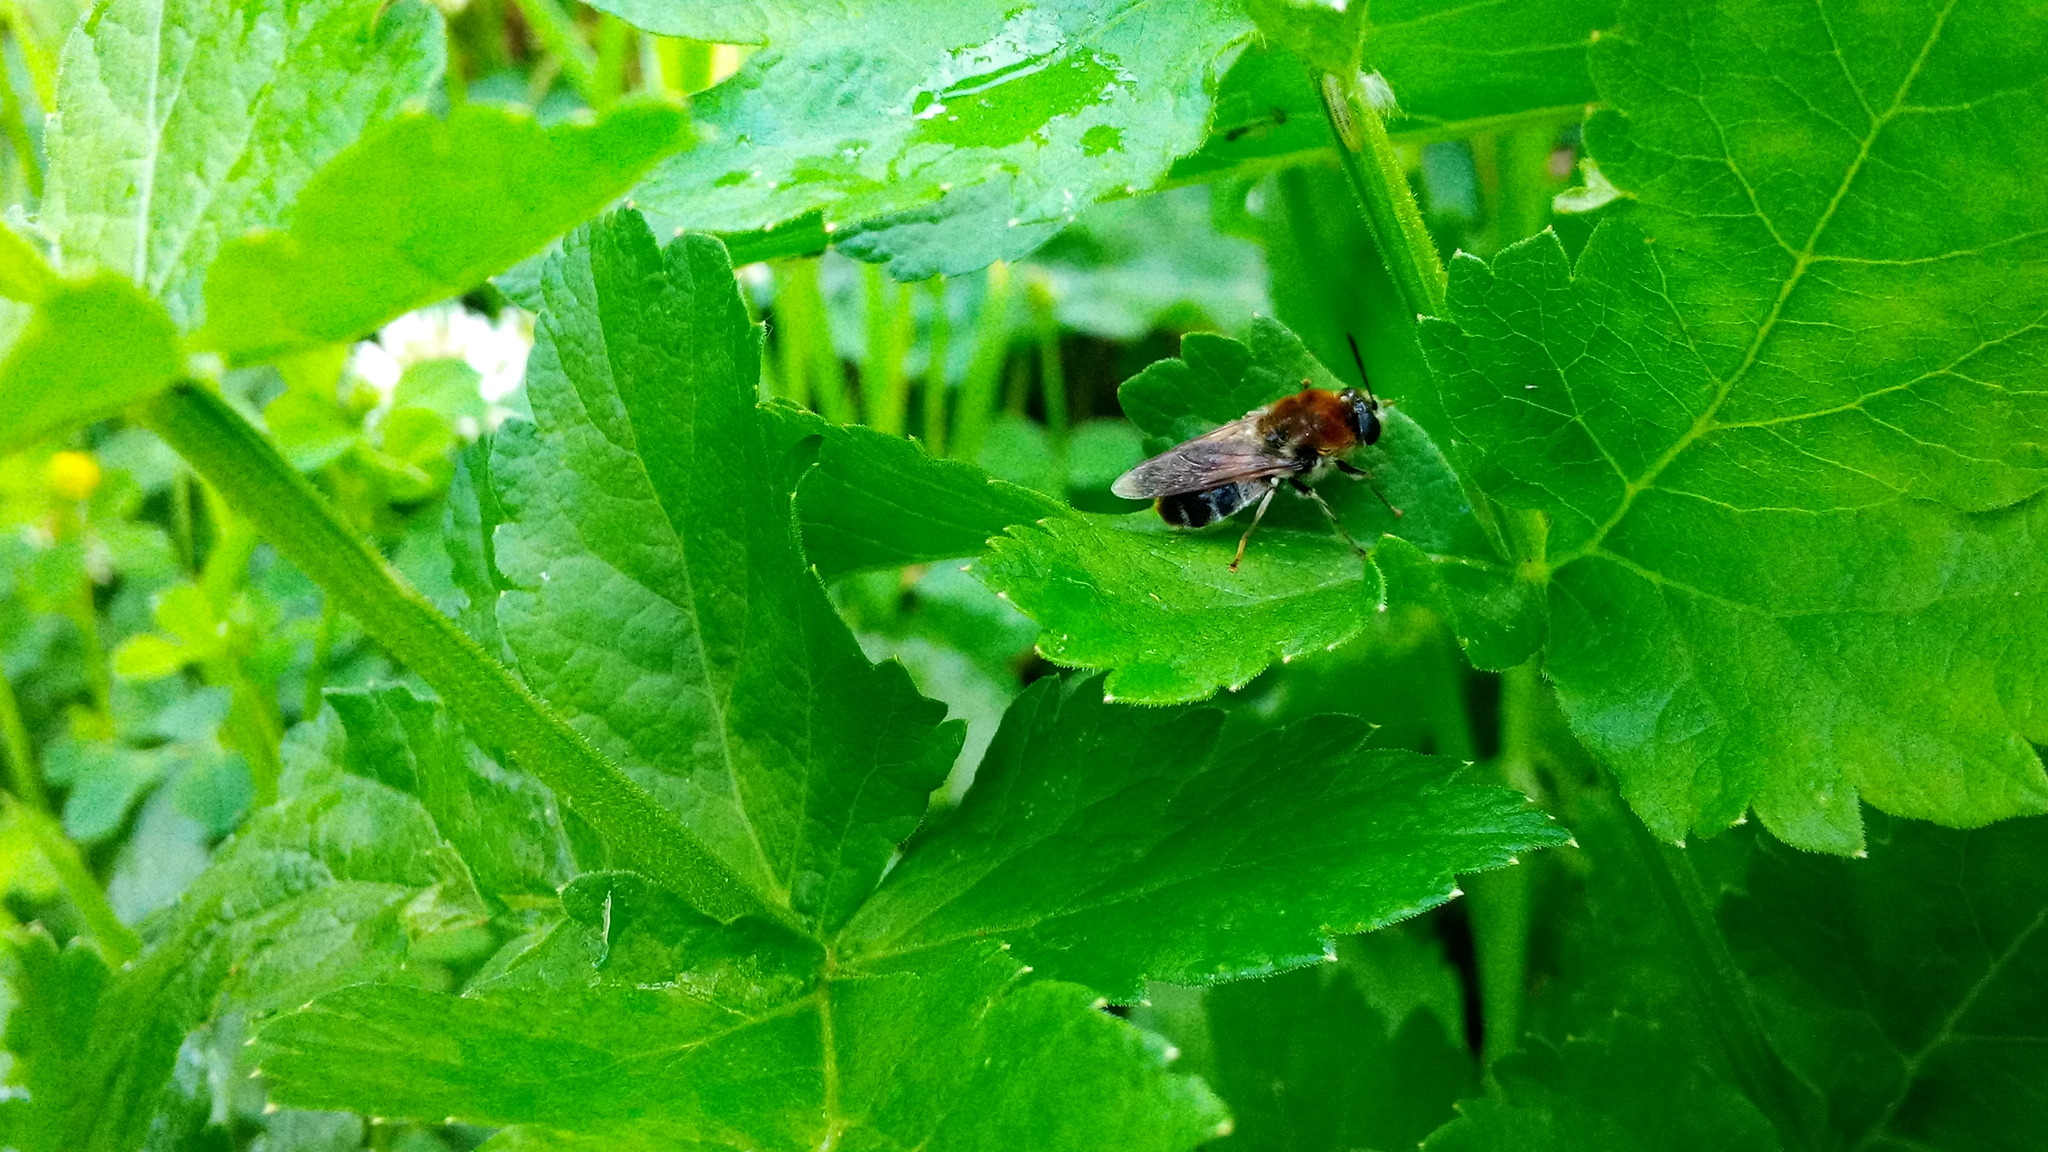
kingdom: Animalia
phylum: Arthropoda
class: Insecta
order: Diptera
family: Stratiomyidae
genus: Stratiomys
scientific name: Stratiomys longicornis
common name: Long-horned general
